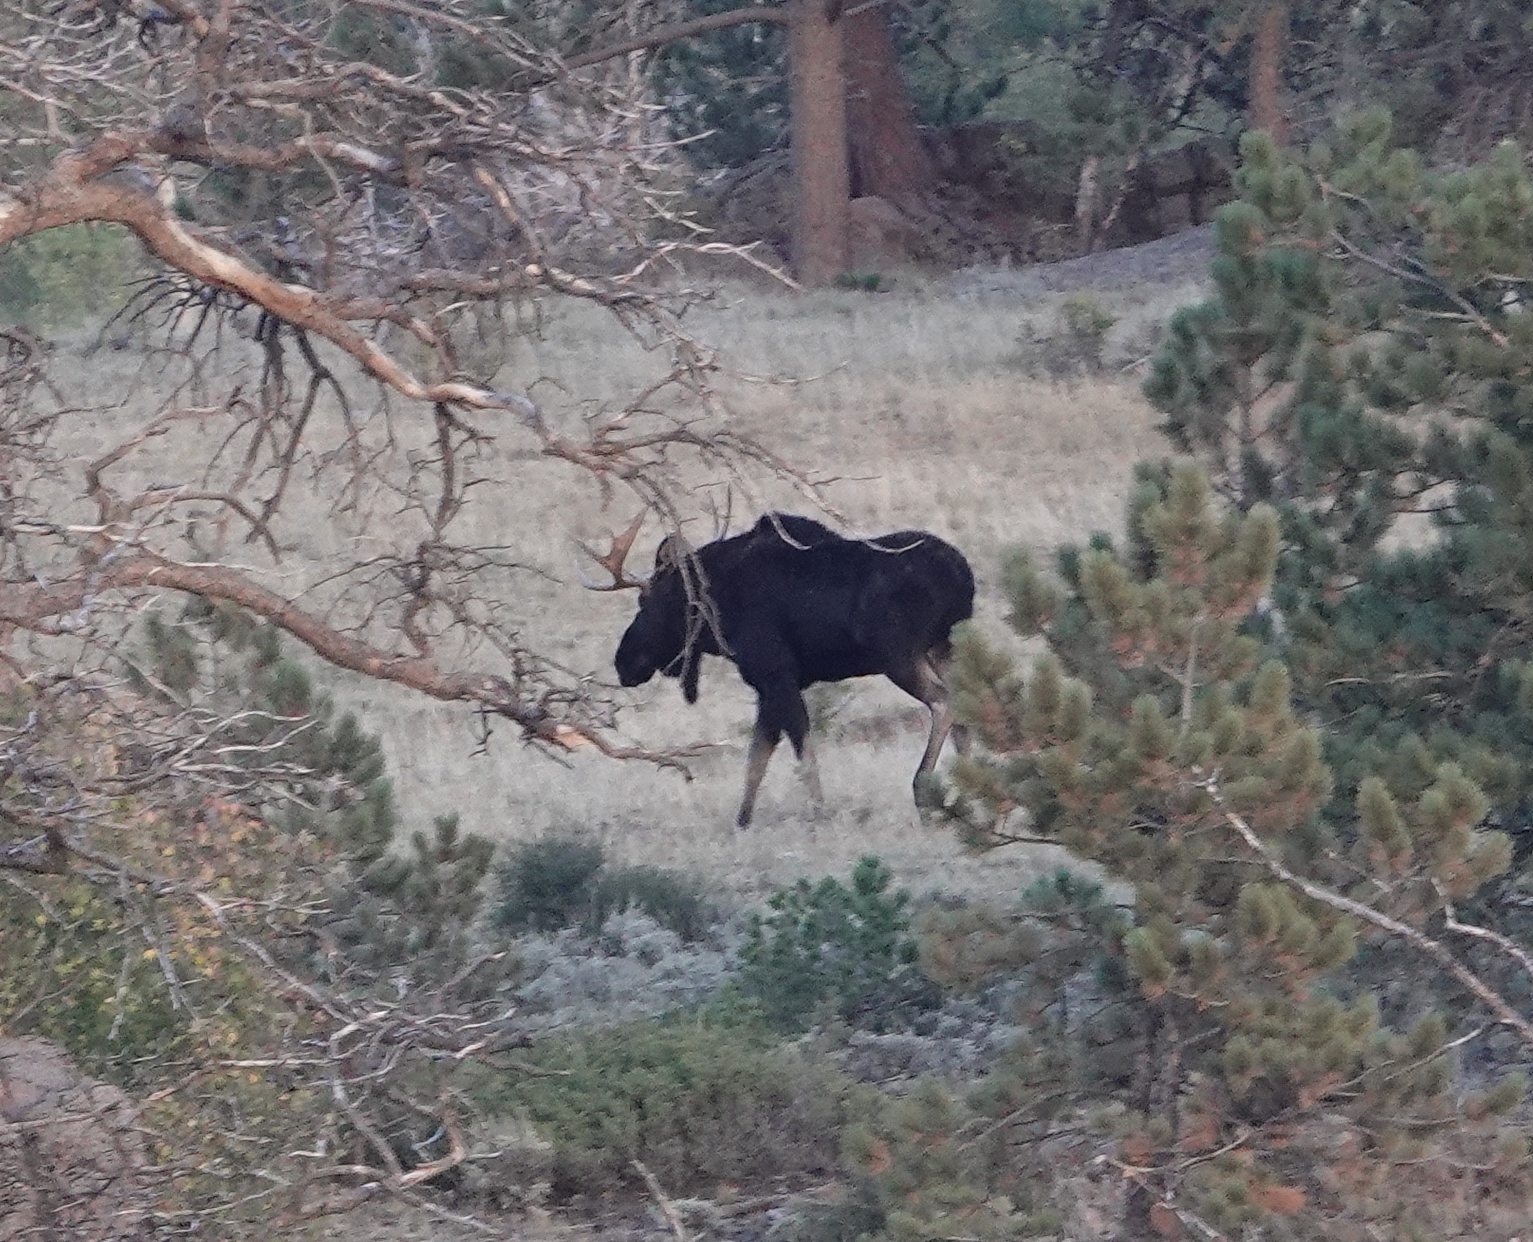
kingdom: Animalia
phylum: Chordata
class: Mammalia
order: Artiodactyla
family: Cervidae
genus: Alces
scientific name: Alces alces
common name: Moose
